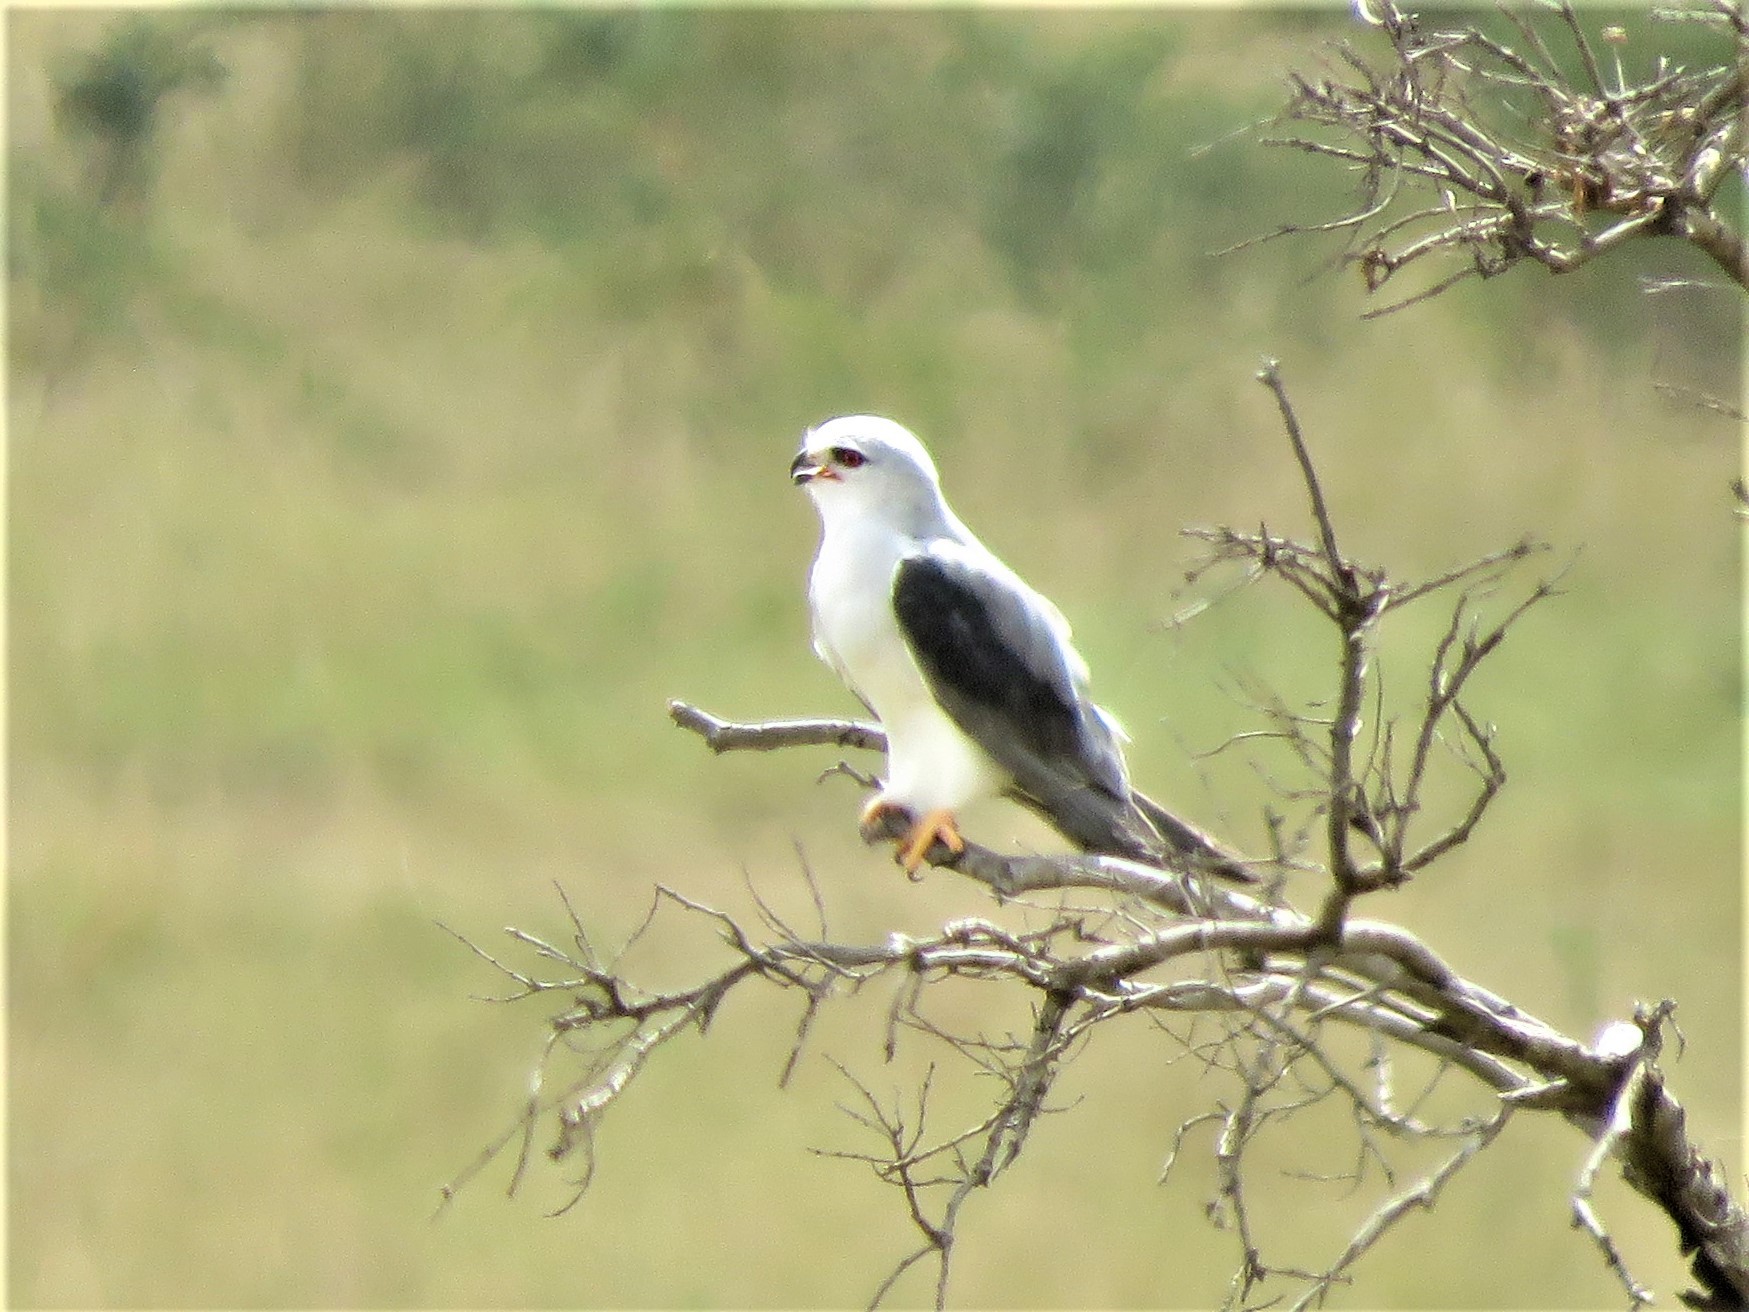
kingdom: Animalia
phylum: Chordata
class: Aves
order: Accipitriformes
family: Accipitridae
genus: Elanus
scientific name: Elanus caeruleus
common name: Black-winged kite
